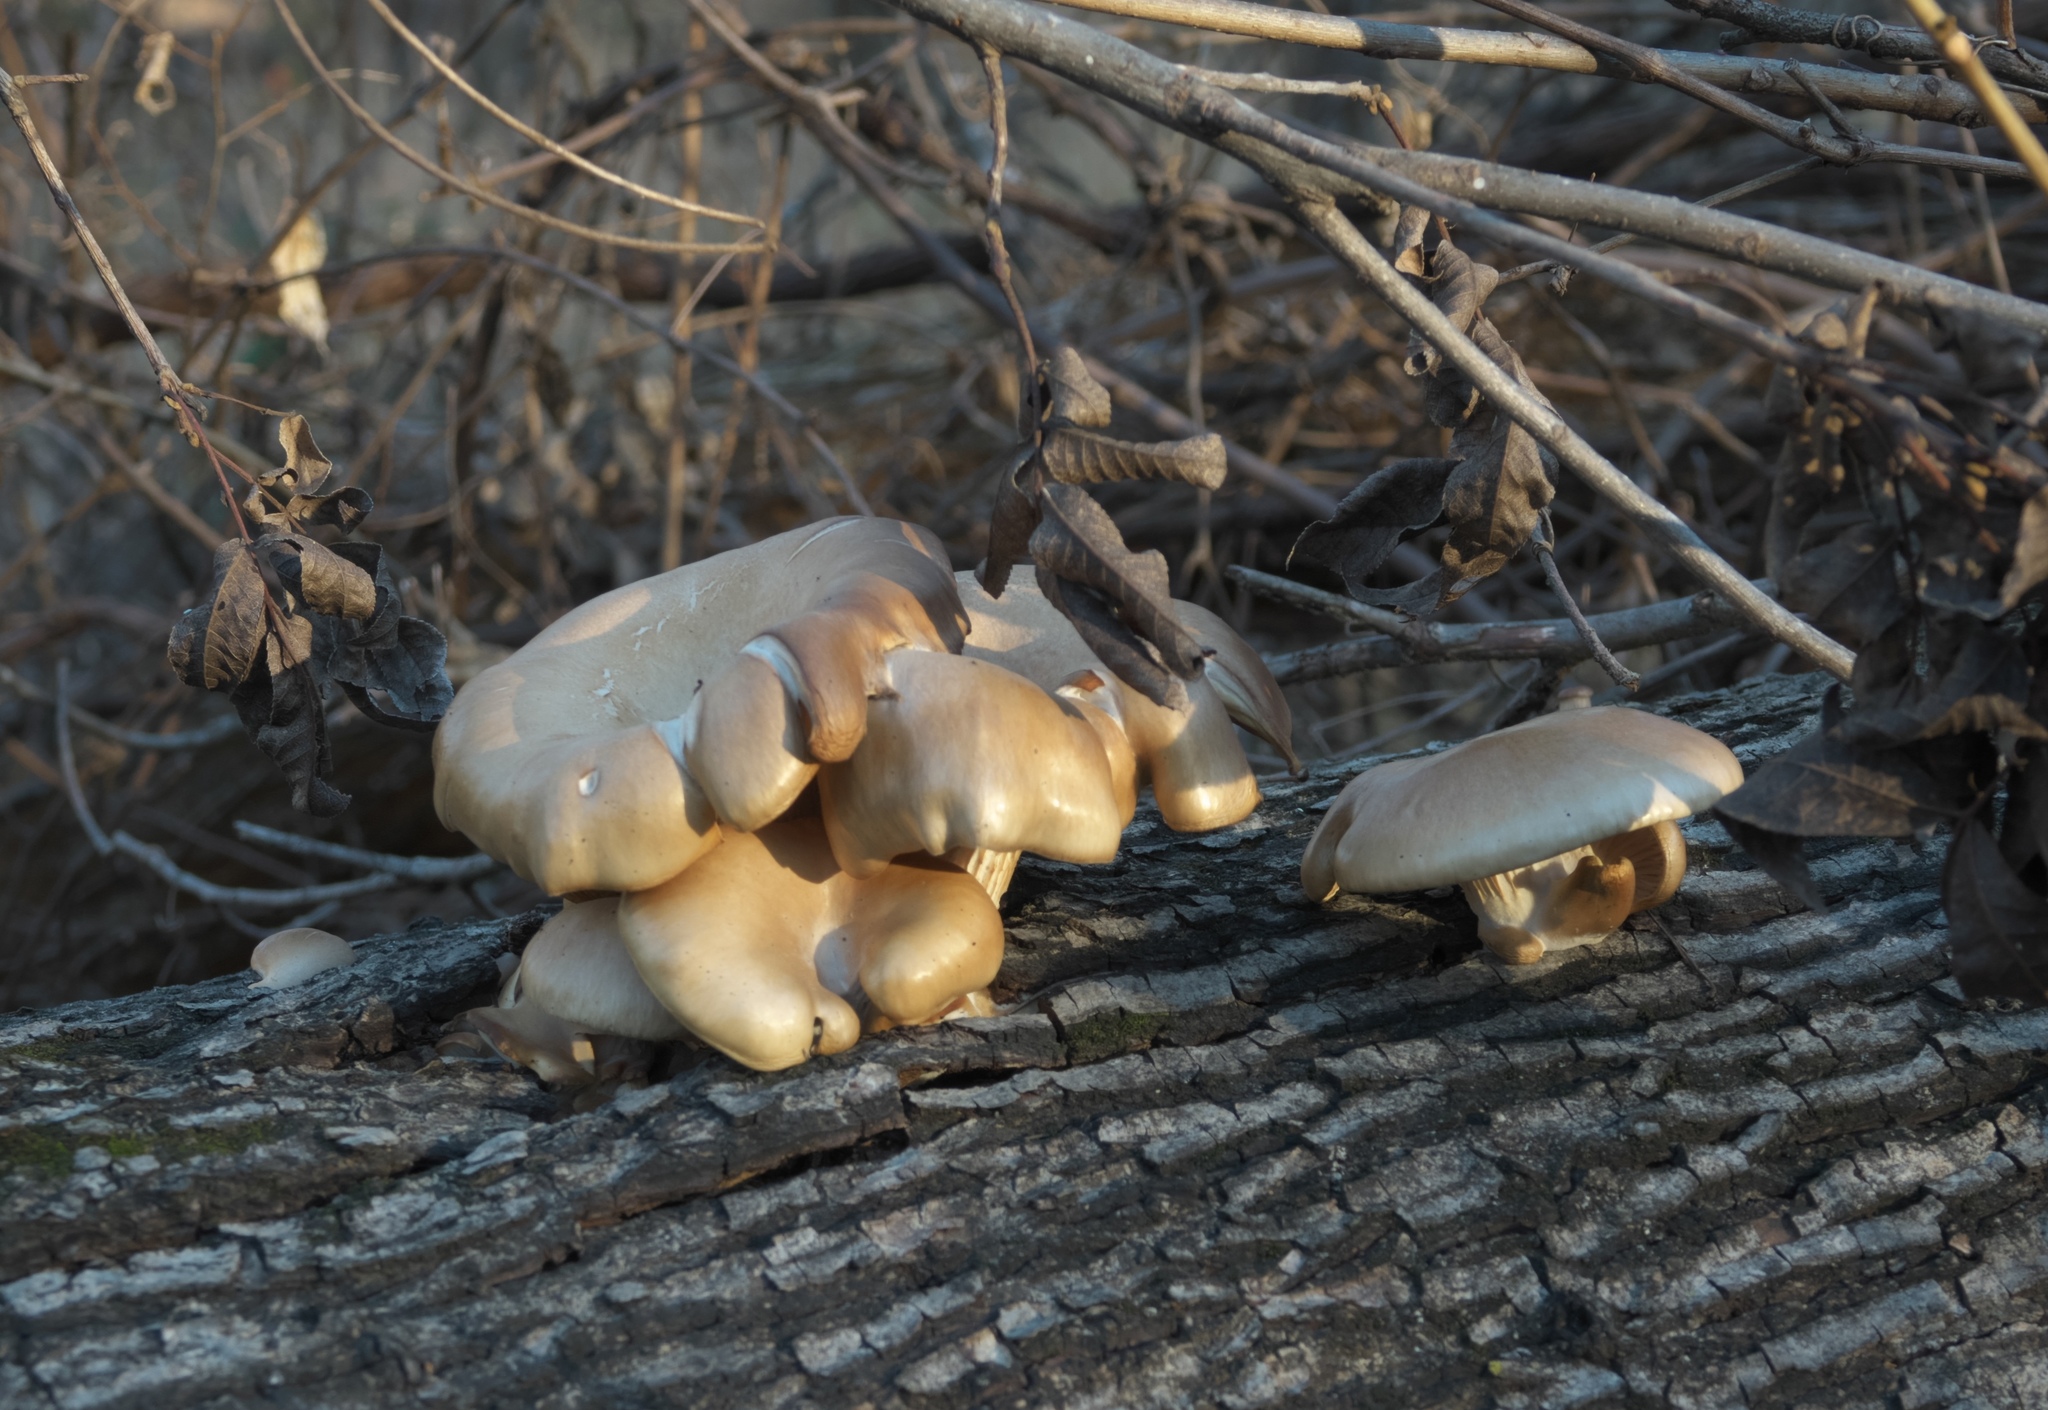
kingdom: Fungi
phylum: Basidiomycota
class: Agaricomycetes
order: Agaricales
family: Pleurotaceae
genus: Pleurotus
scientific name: Pleurotus ostreatus
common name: Oyster mushroom
